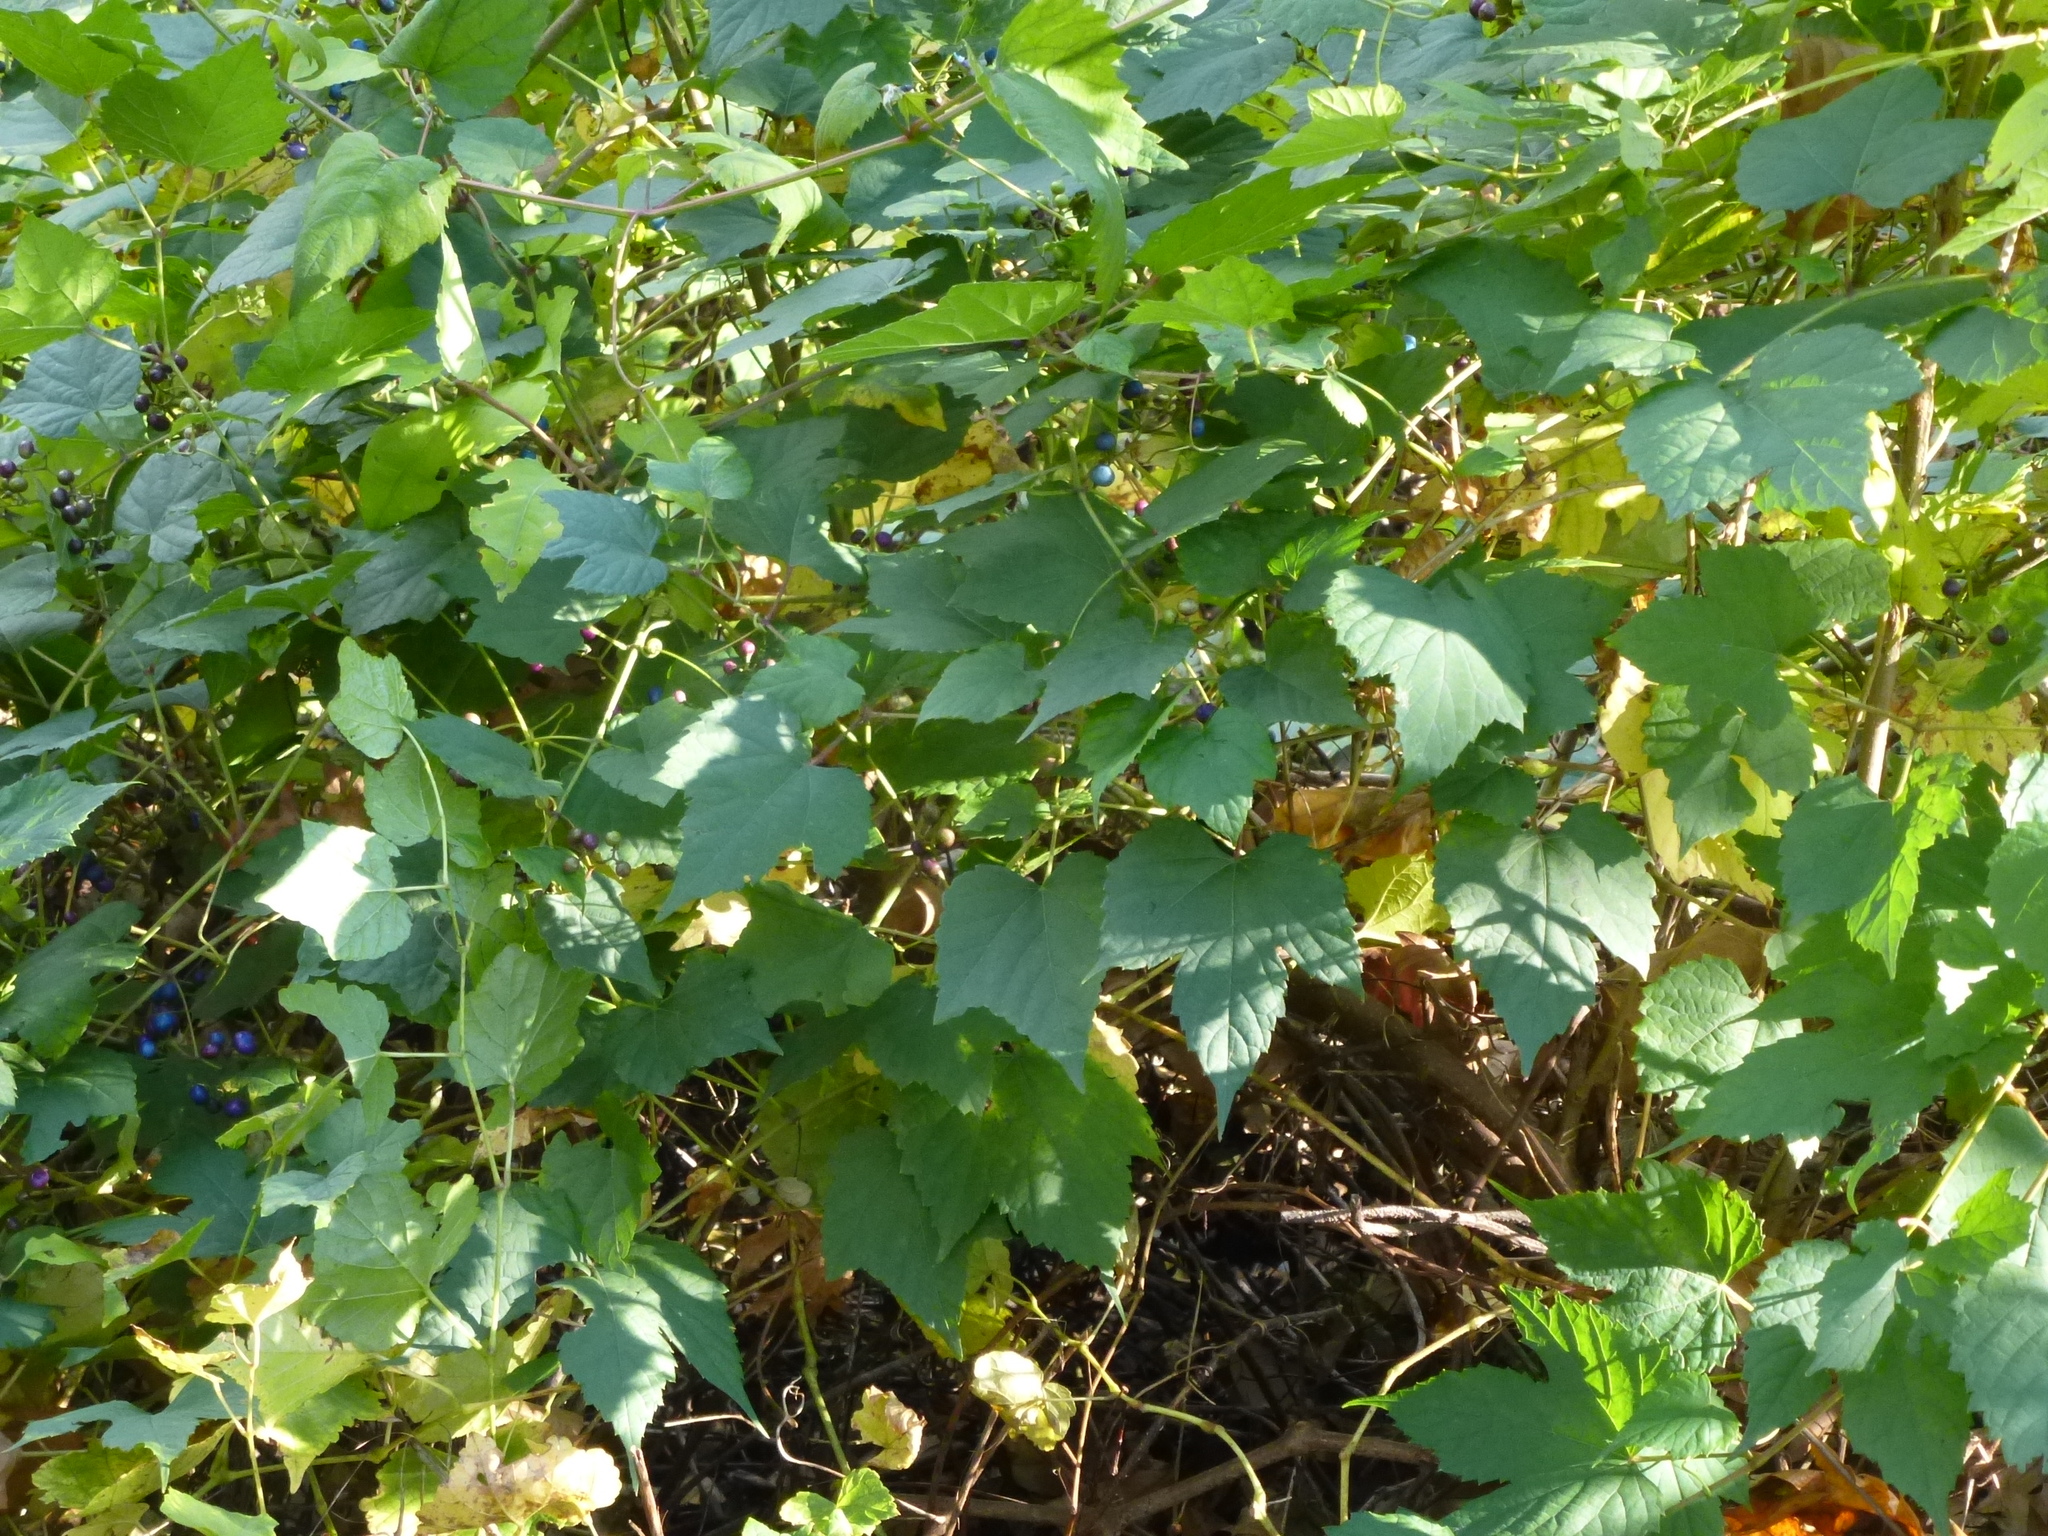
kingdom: Plantae
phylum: Tracheophyta
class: Magnoliopsida
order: Vitales
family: Vitaceae
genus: Ampelopsis
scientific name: Ampelopsis glandulosa
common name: Amur peppervine
